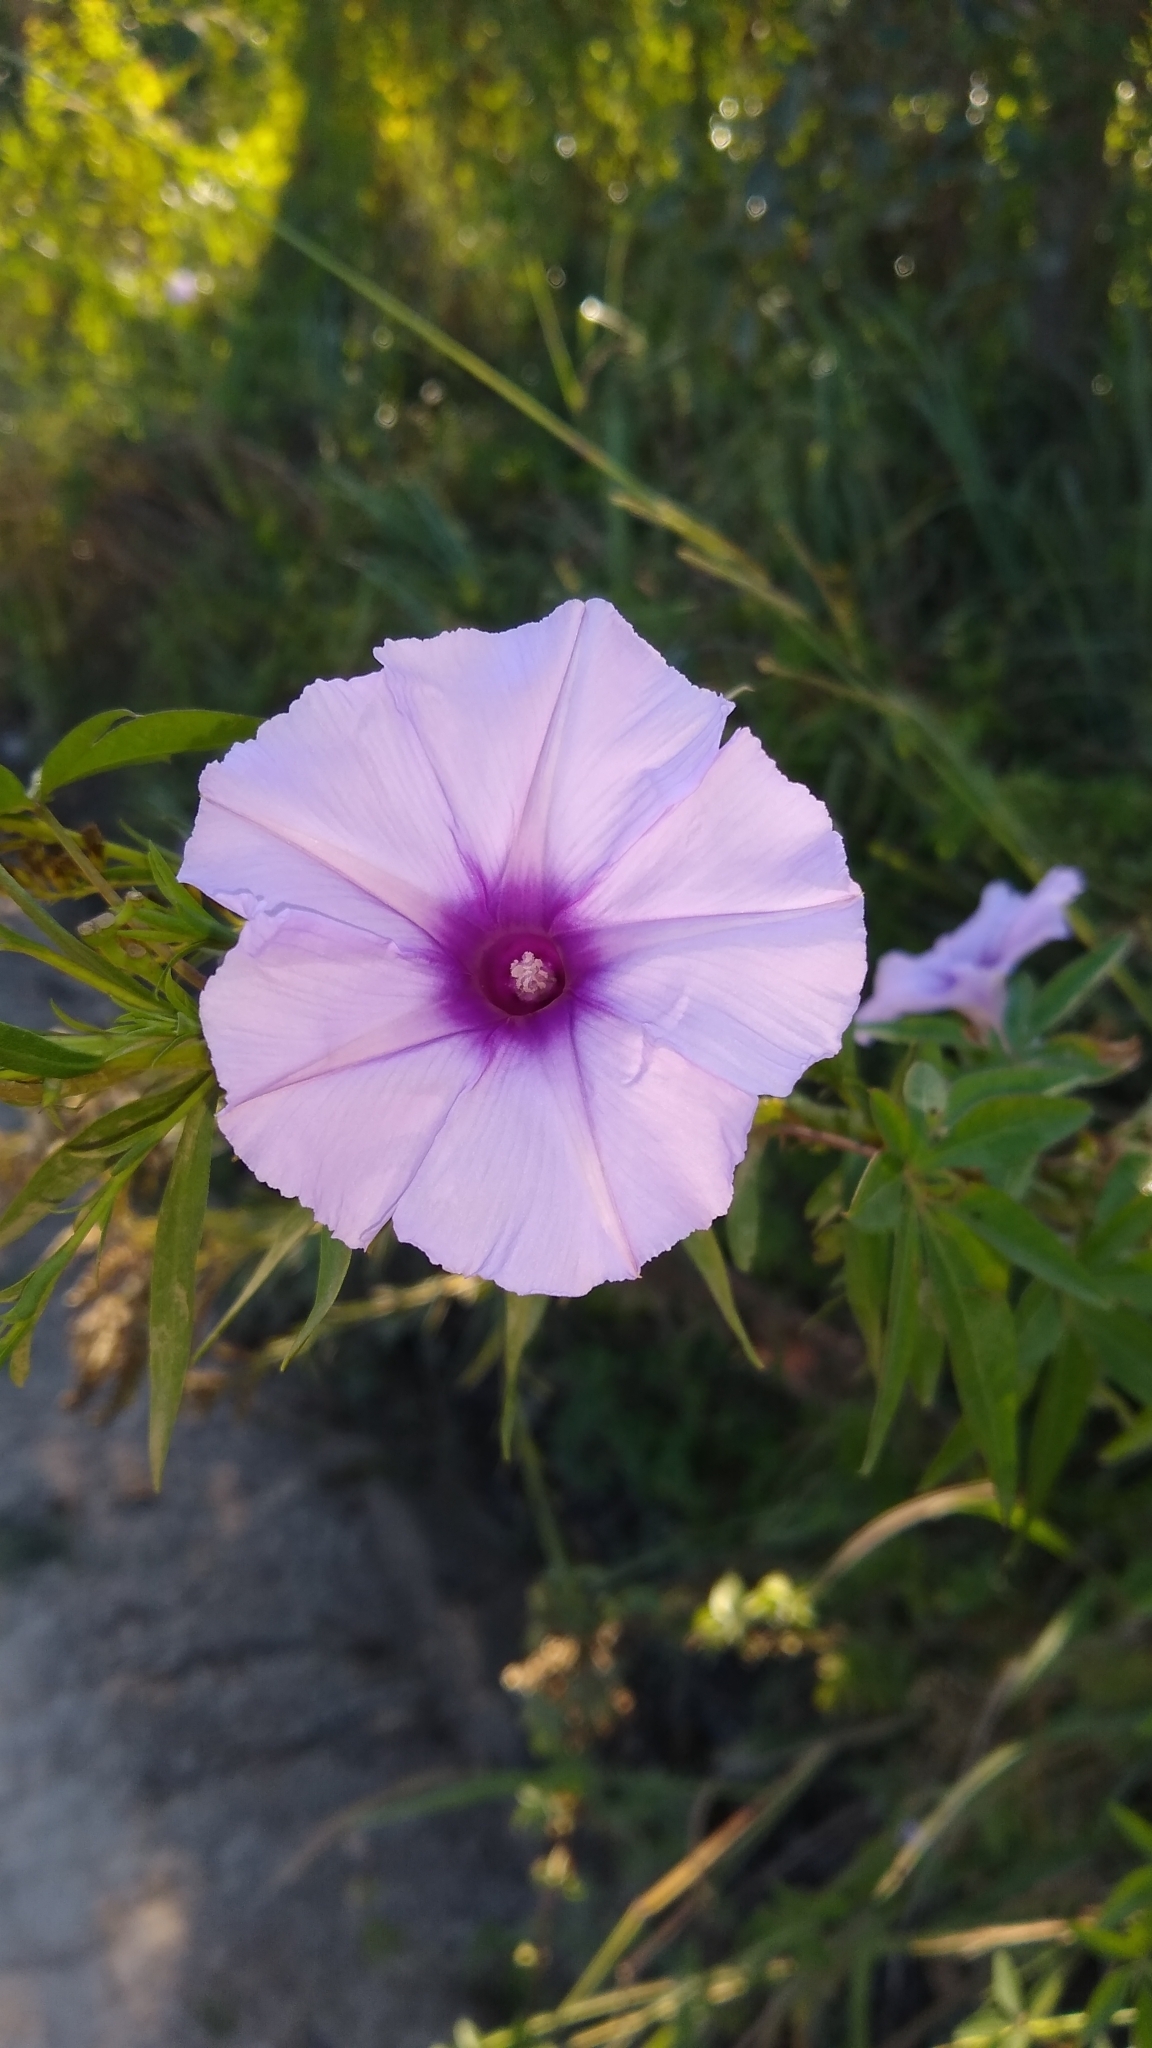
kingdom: Plantae
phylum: Tracheophyta
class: Magnoliopsida
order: Solanales
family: Convolvulaceae
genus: Ipomoea
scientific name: Ipomoea cairica
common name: Mile a minute vine
